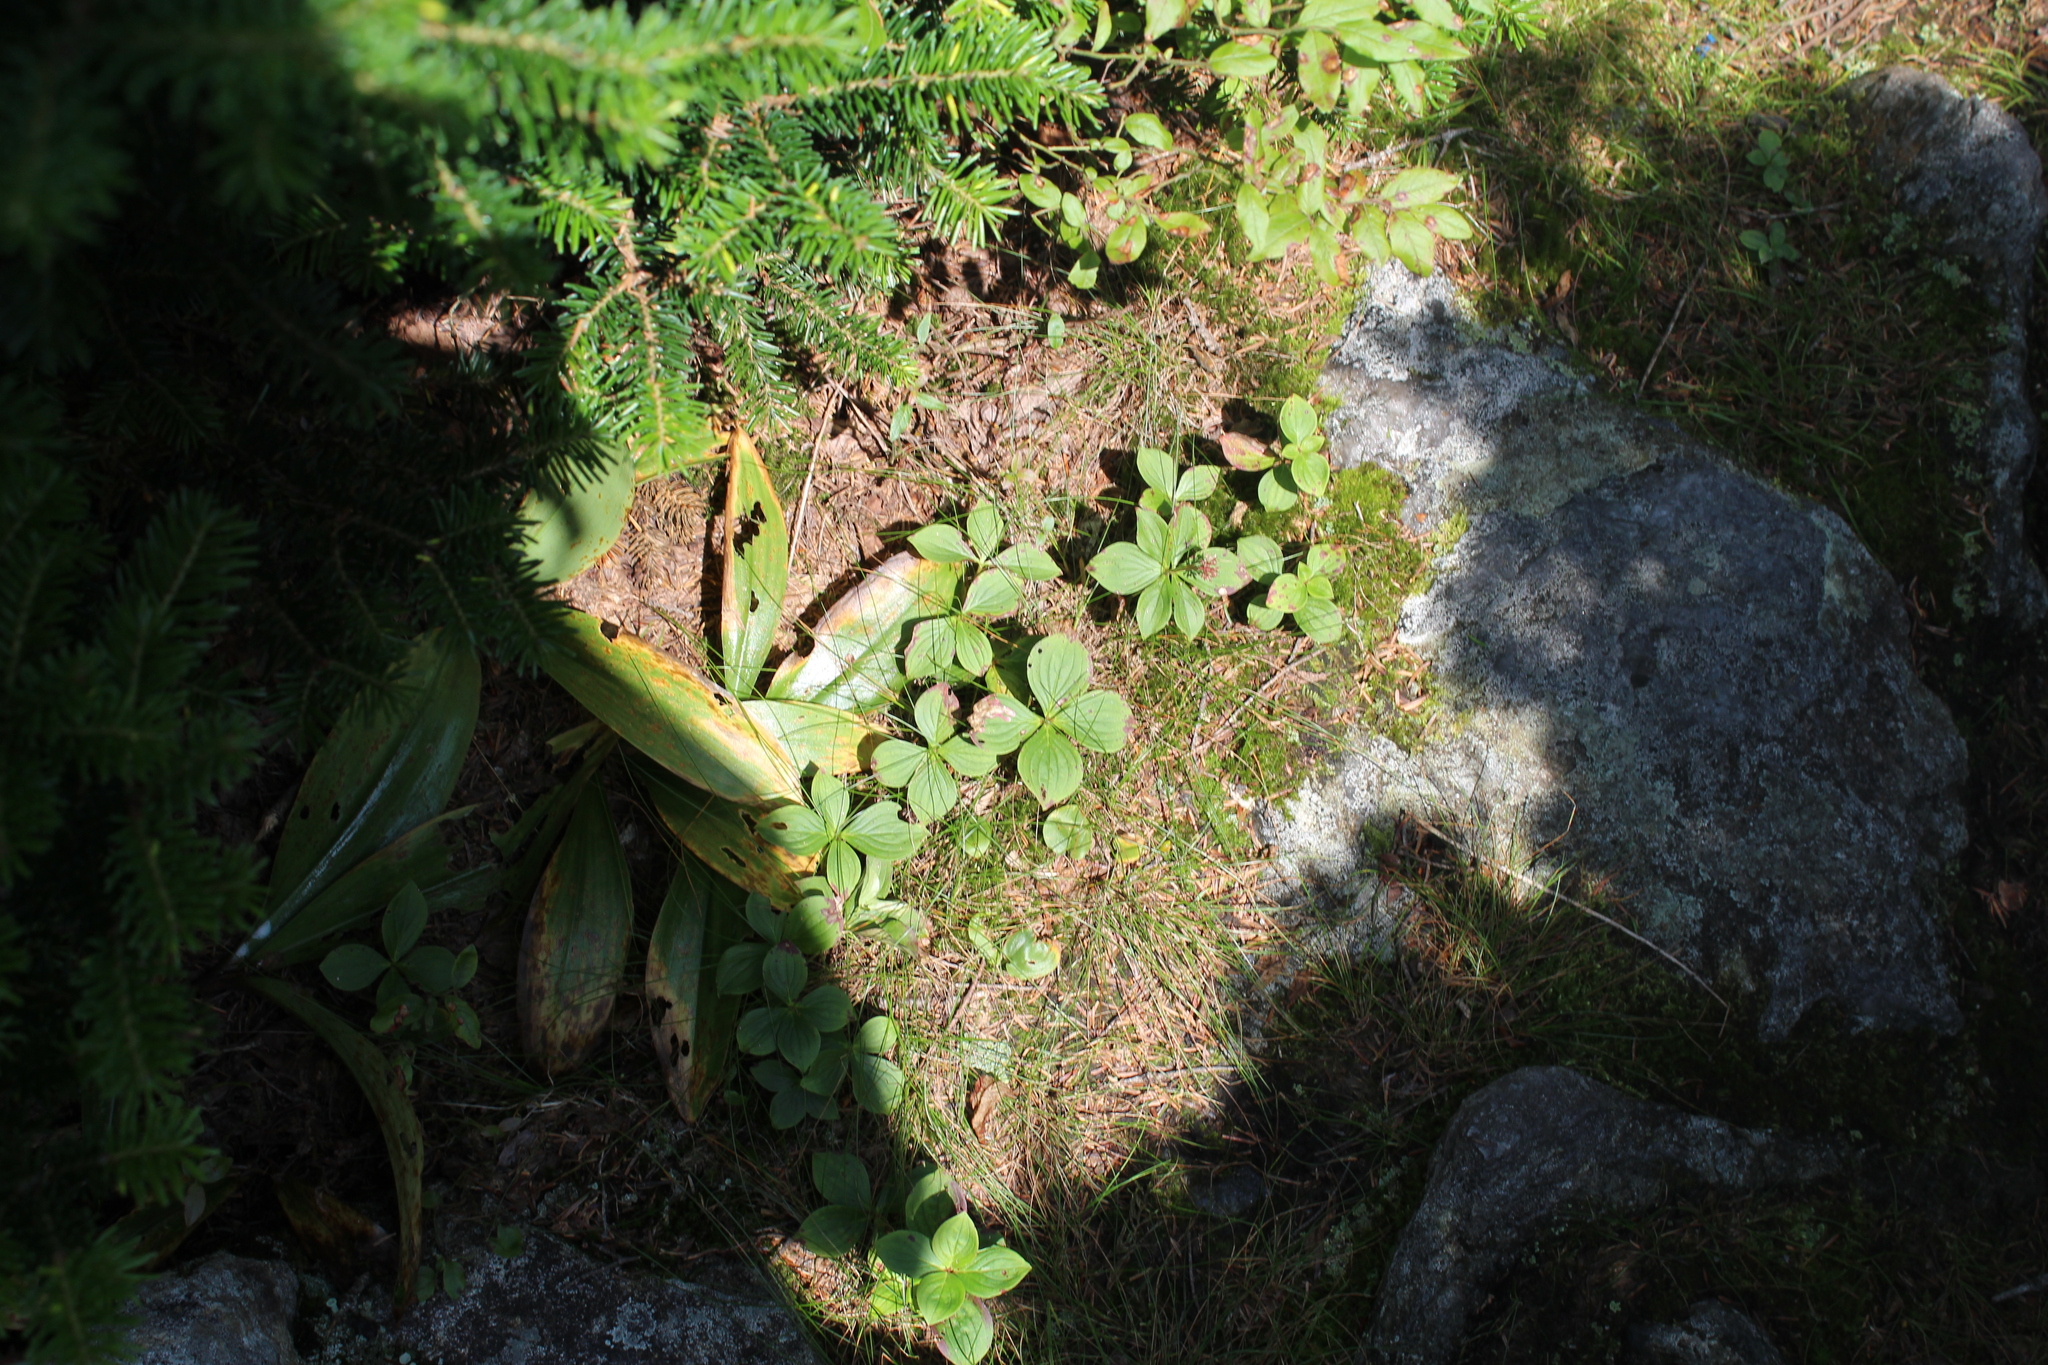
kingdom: Plantae
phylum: Tracheophyta
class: Magnoliopsida
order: Cornales
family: Cornaceae
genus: Cornus
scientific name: Cornus canadensis
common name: Creeping dogwood
